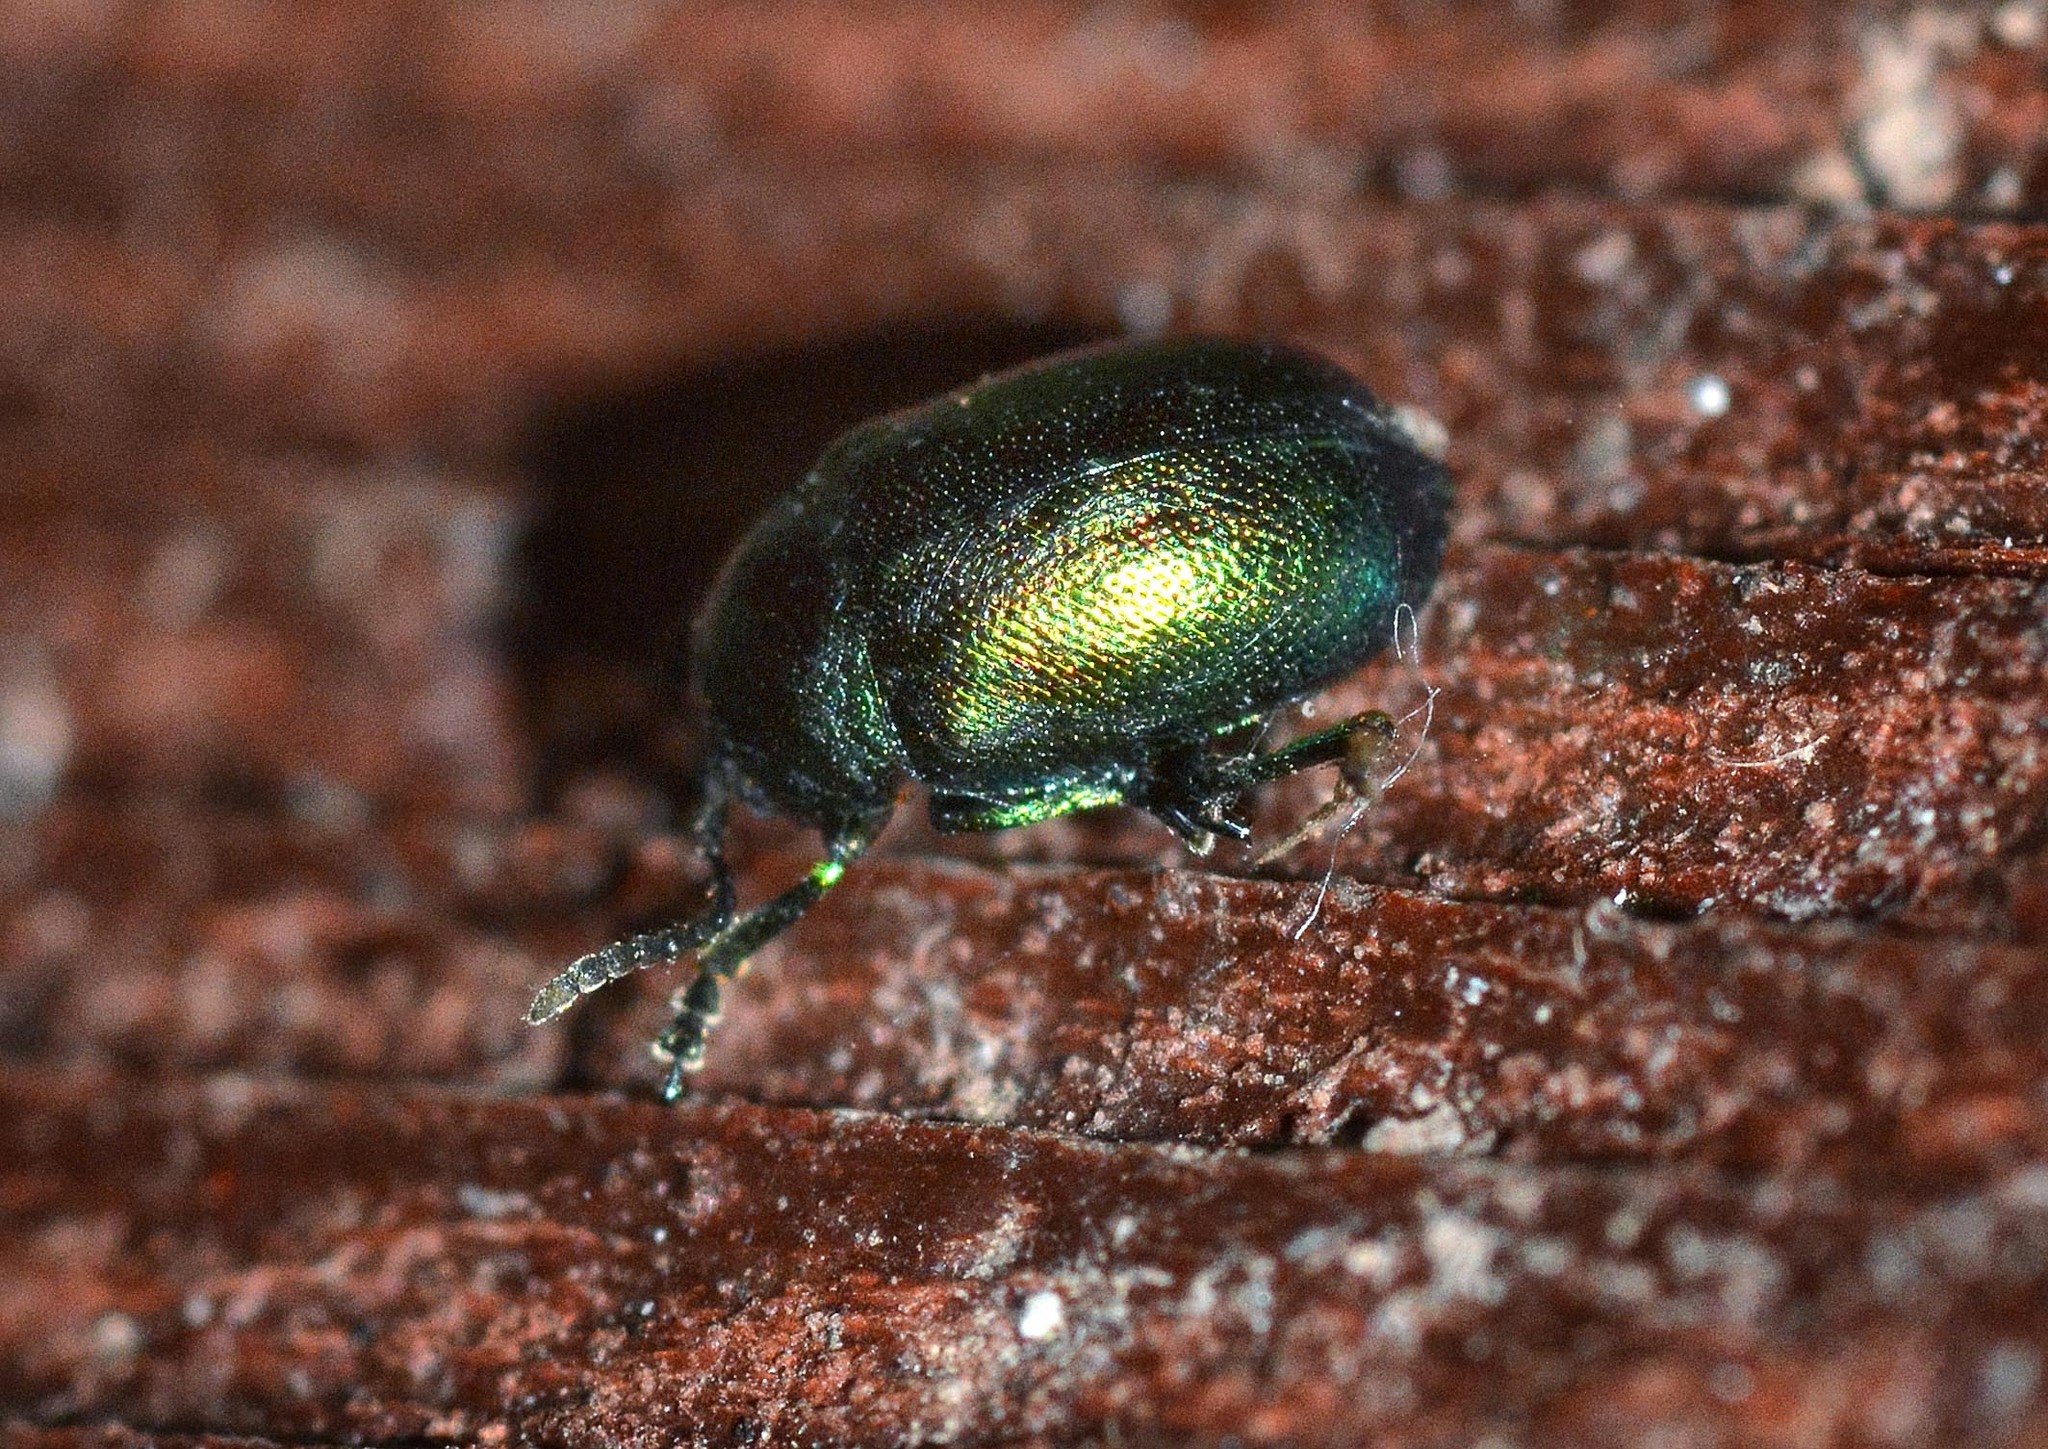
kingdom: Animalia
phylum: Arthropoda
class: Insecta
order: Coleoptera
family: Chrysomelidae
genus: Gastrophysa
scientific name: Gastrophysa viridula
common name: Green dock beetle
